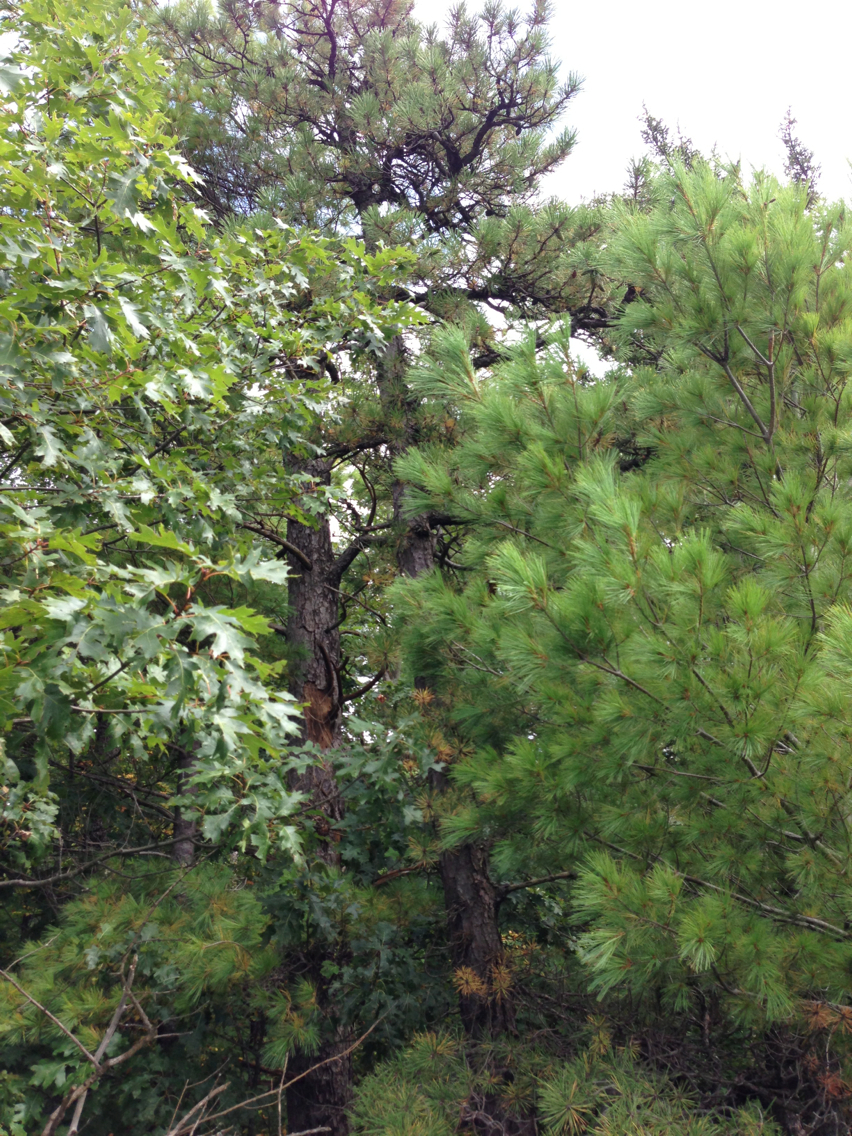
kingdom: Plantae
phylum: Tracheophyta
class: Pinopsida
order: Pinales
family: Pinaceae
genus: Pinus
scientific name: Pinus resinosa
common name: Norway pine
